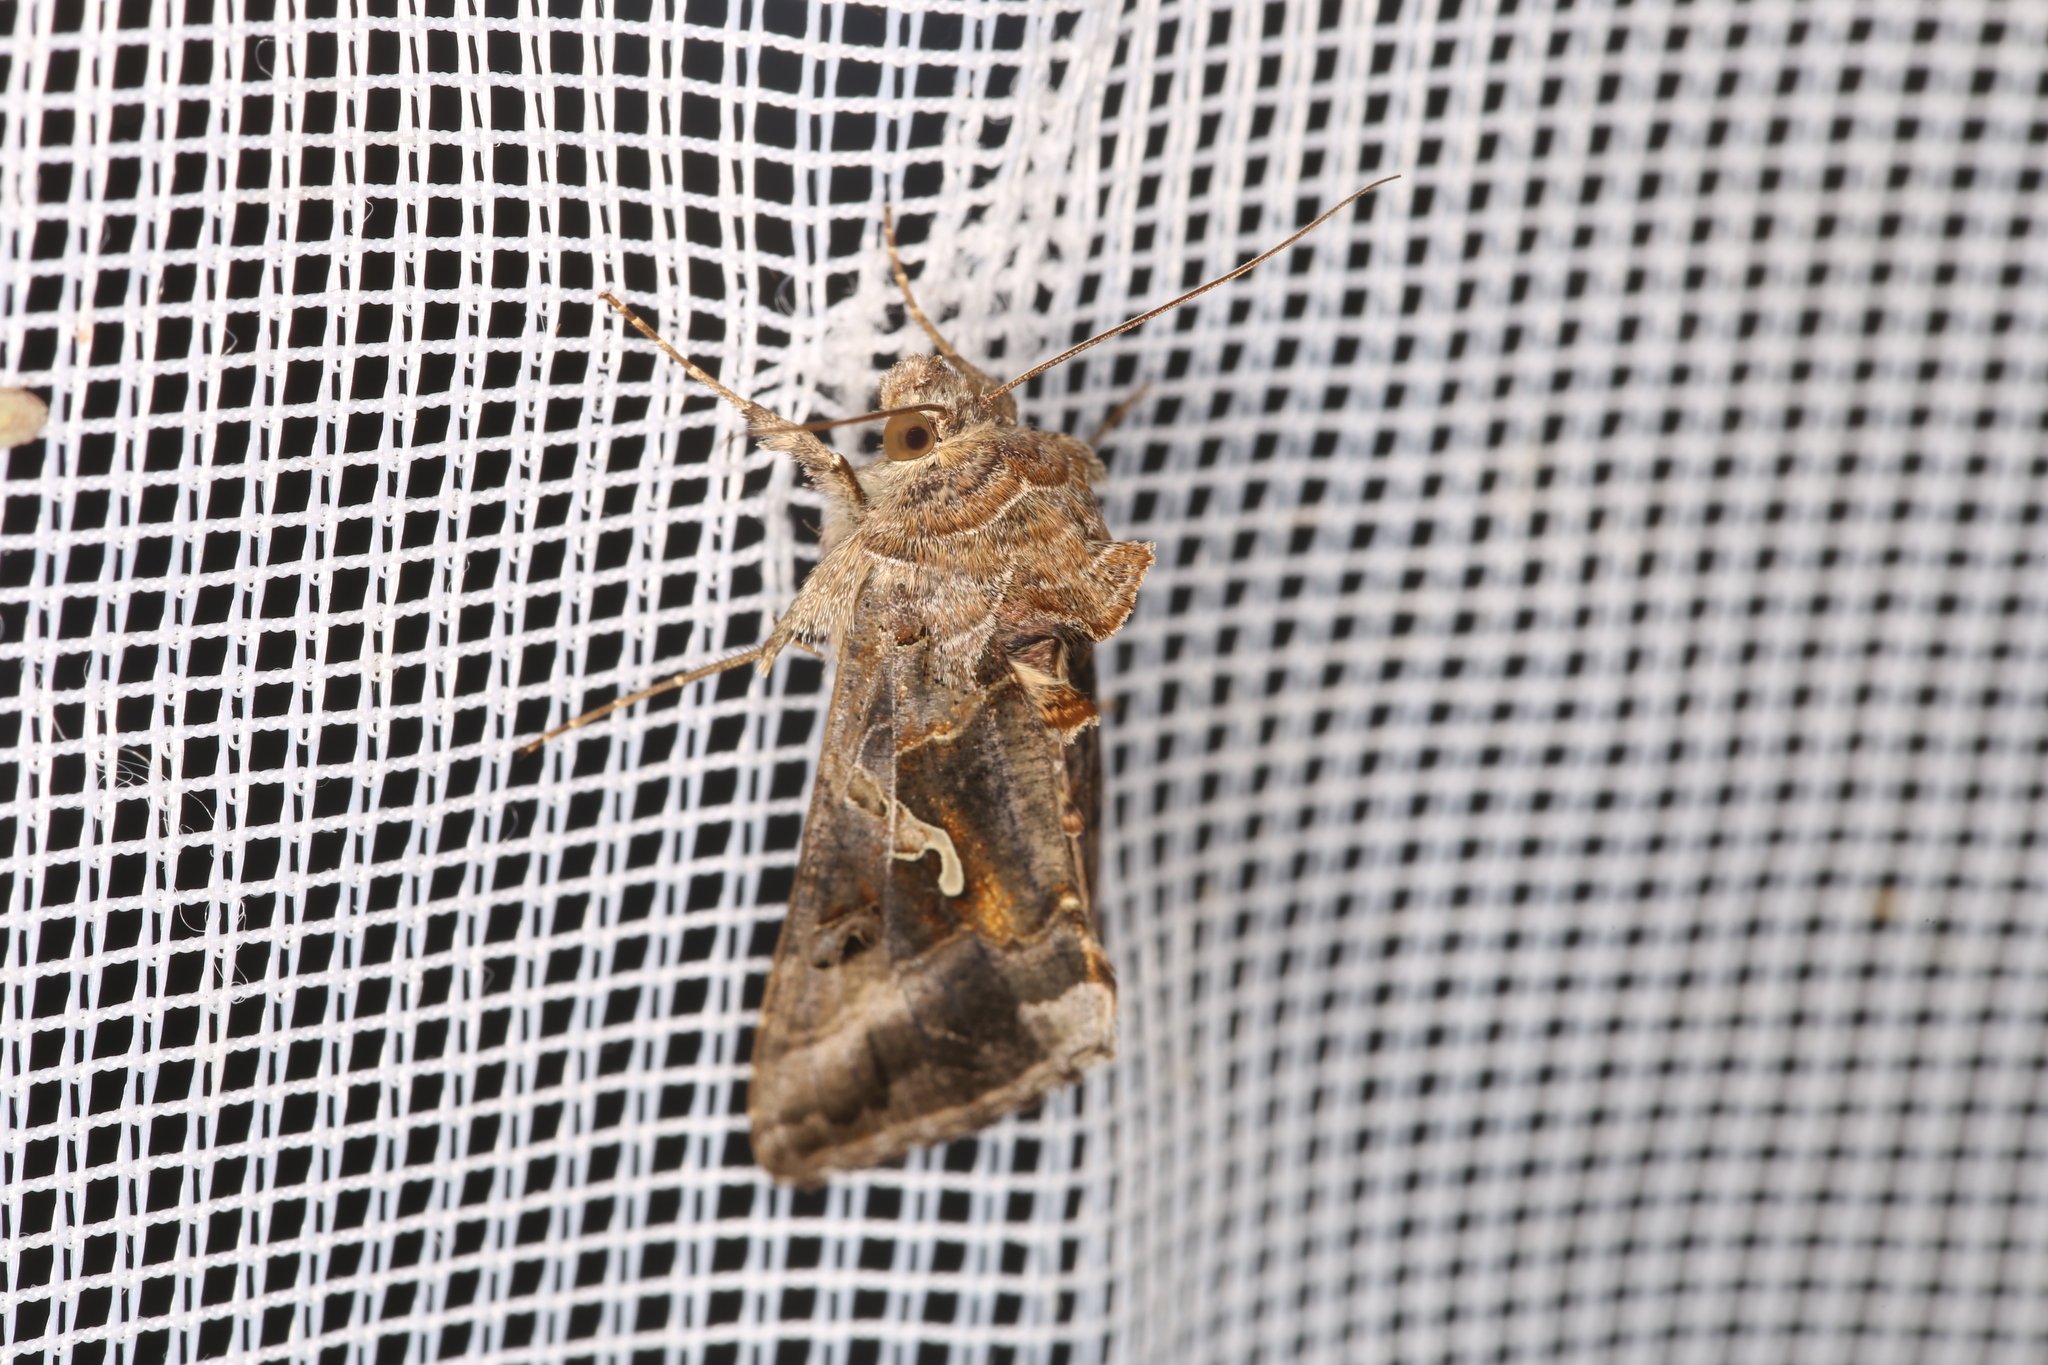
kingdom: Animalia
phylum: Arthropoda
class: Insecta
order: Lepidoptera
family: Noctuidae
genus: Autographa
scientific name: Autographa gamma
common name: Silver y
